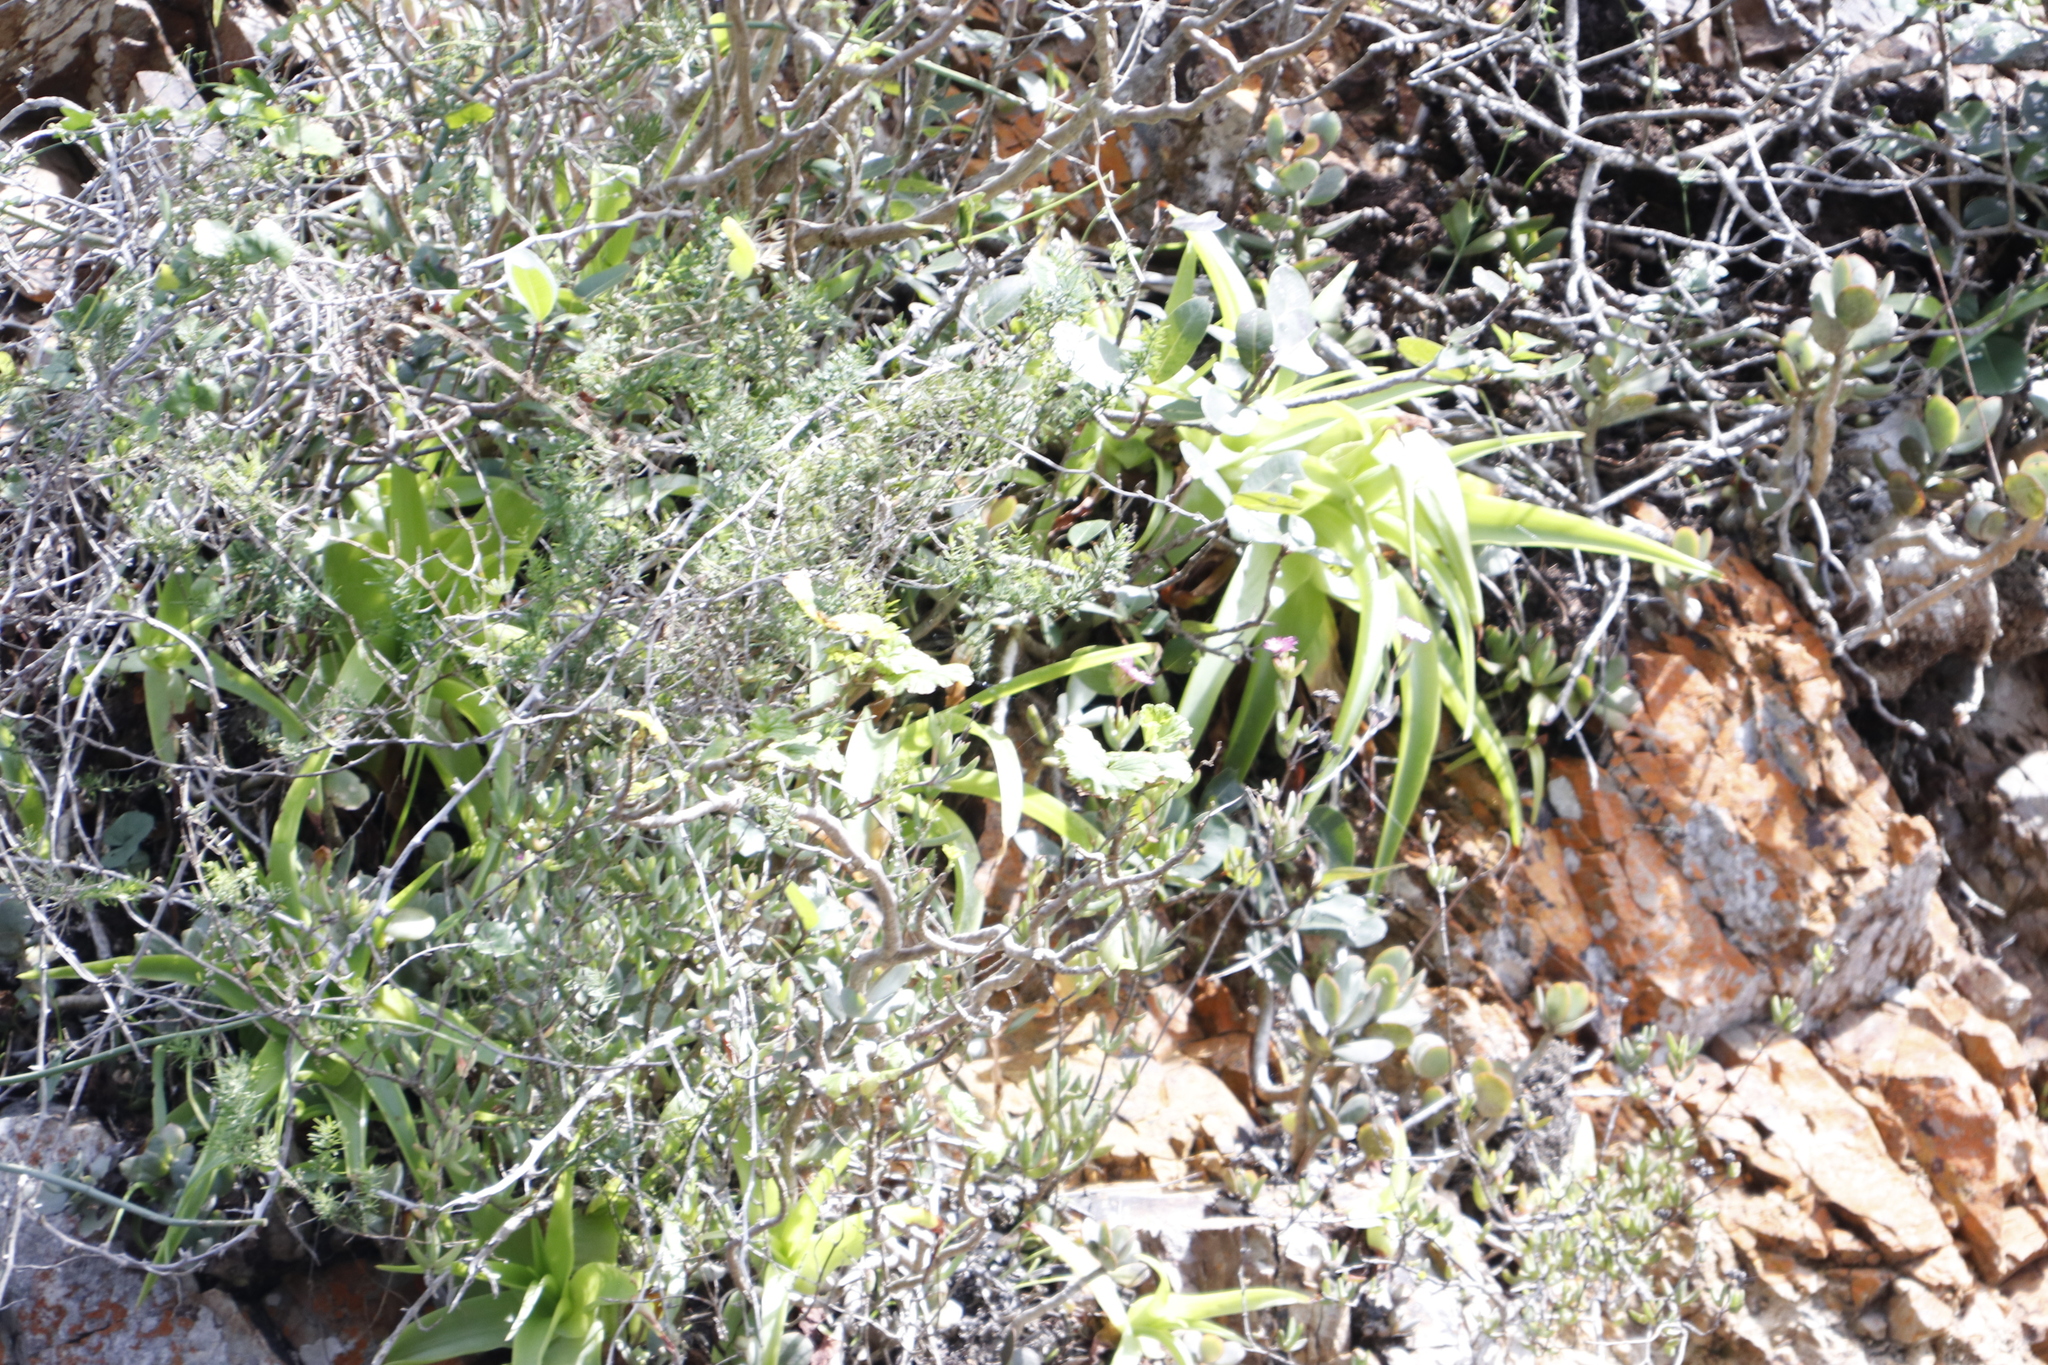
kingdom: Plantae
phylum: Tracheophyta
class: Liliopsida
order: Asparagales
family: Asphodelaceae
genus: Bulbine
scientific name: Bulbine latifolia
